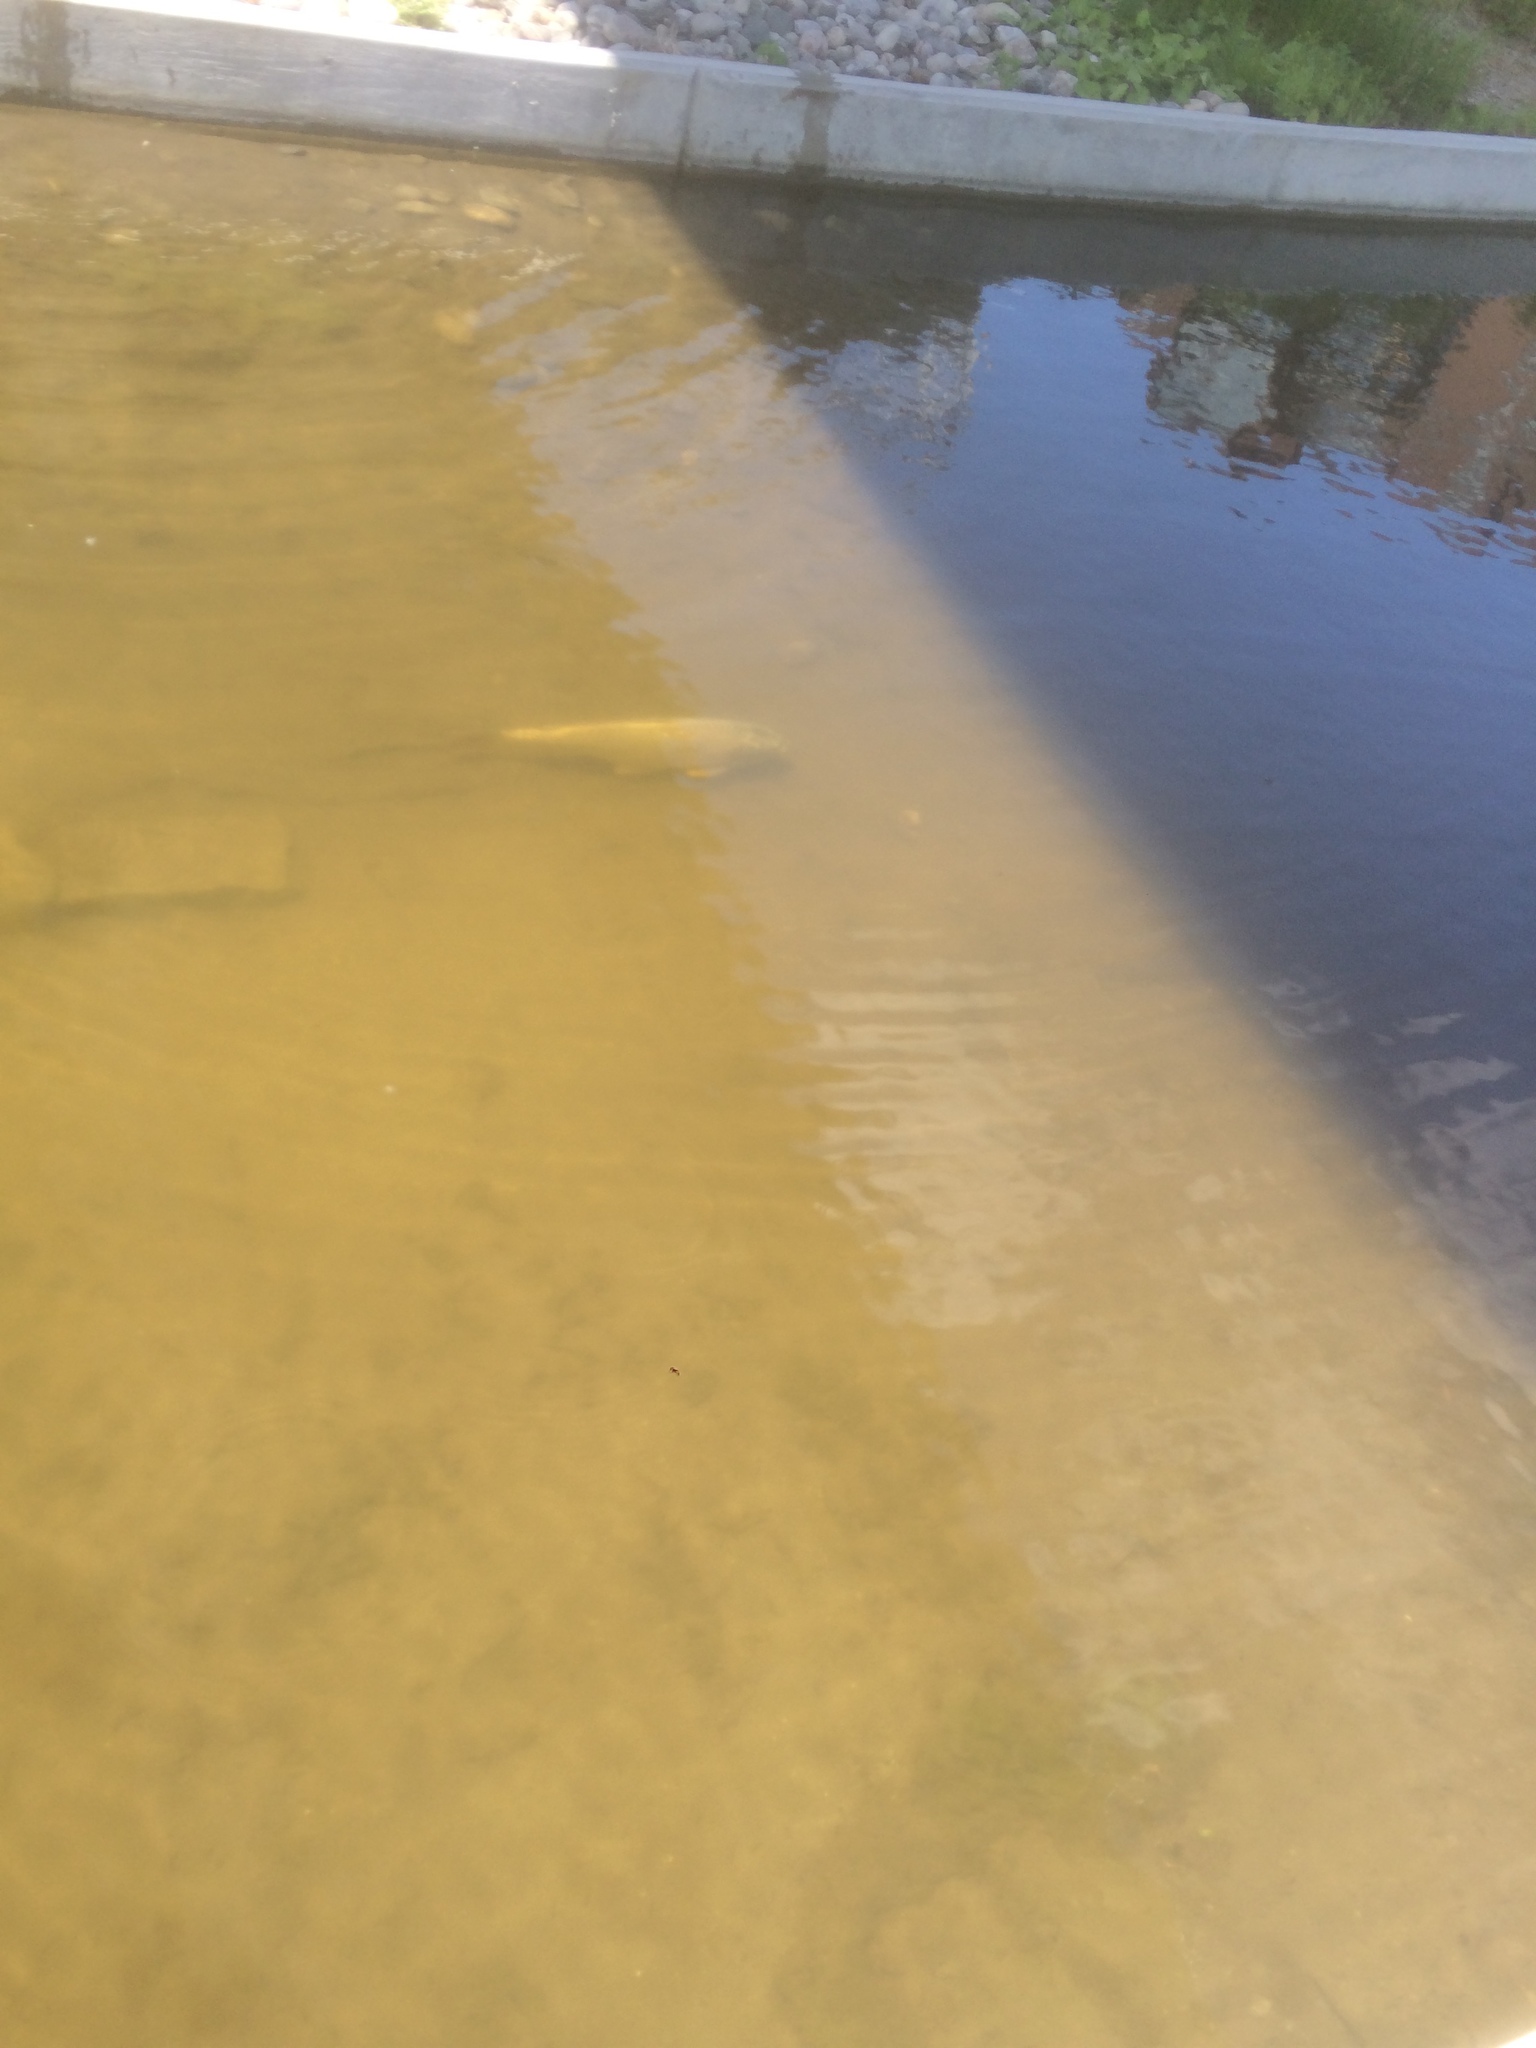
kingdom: Animalia
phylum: Chordata
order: Cypriniformes
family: Cyprinidae
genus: Cyprinus
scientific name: Cyprinus carpio
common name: Common carp
